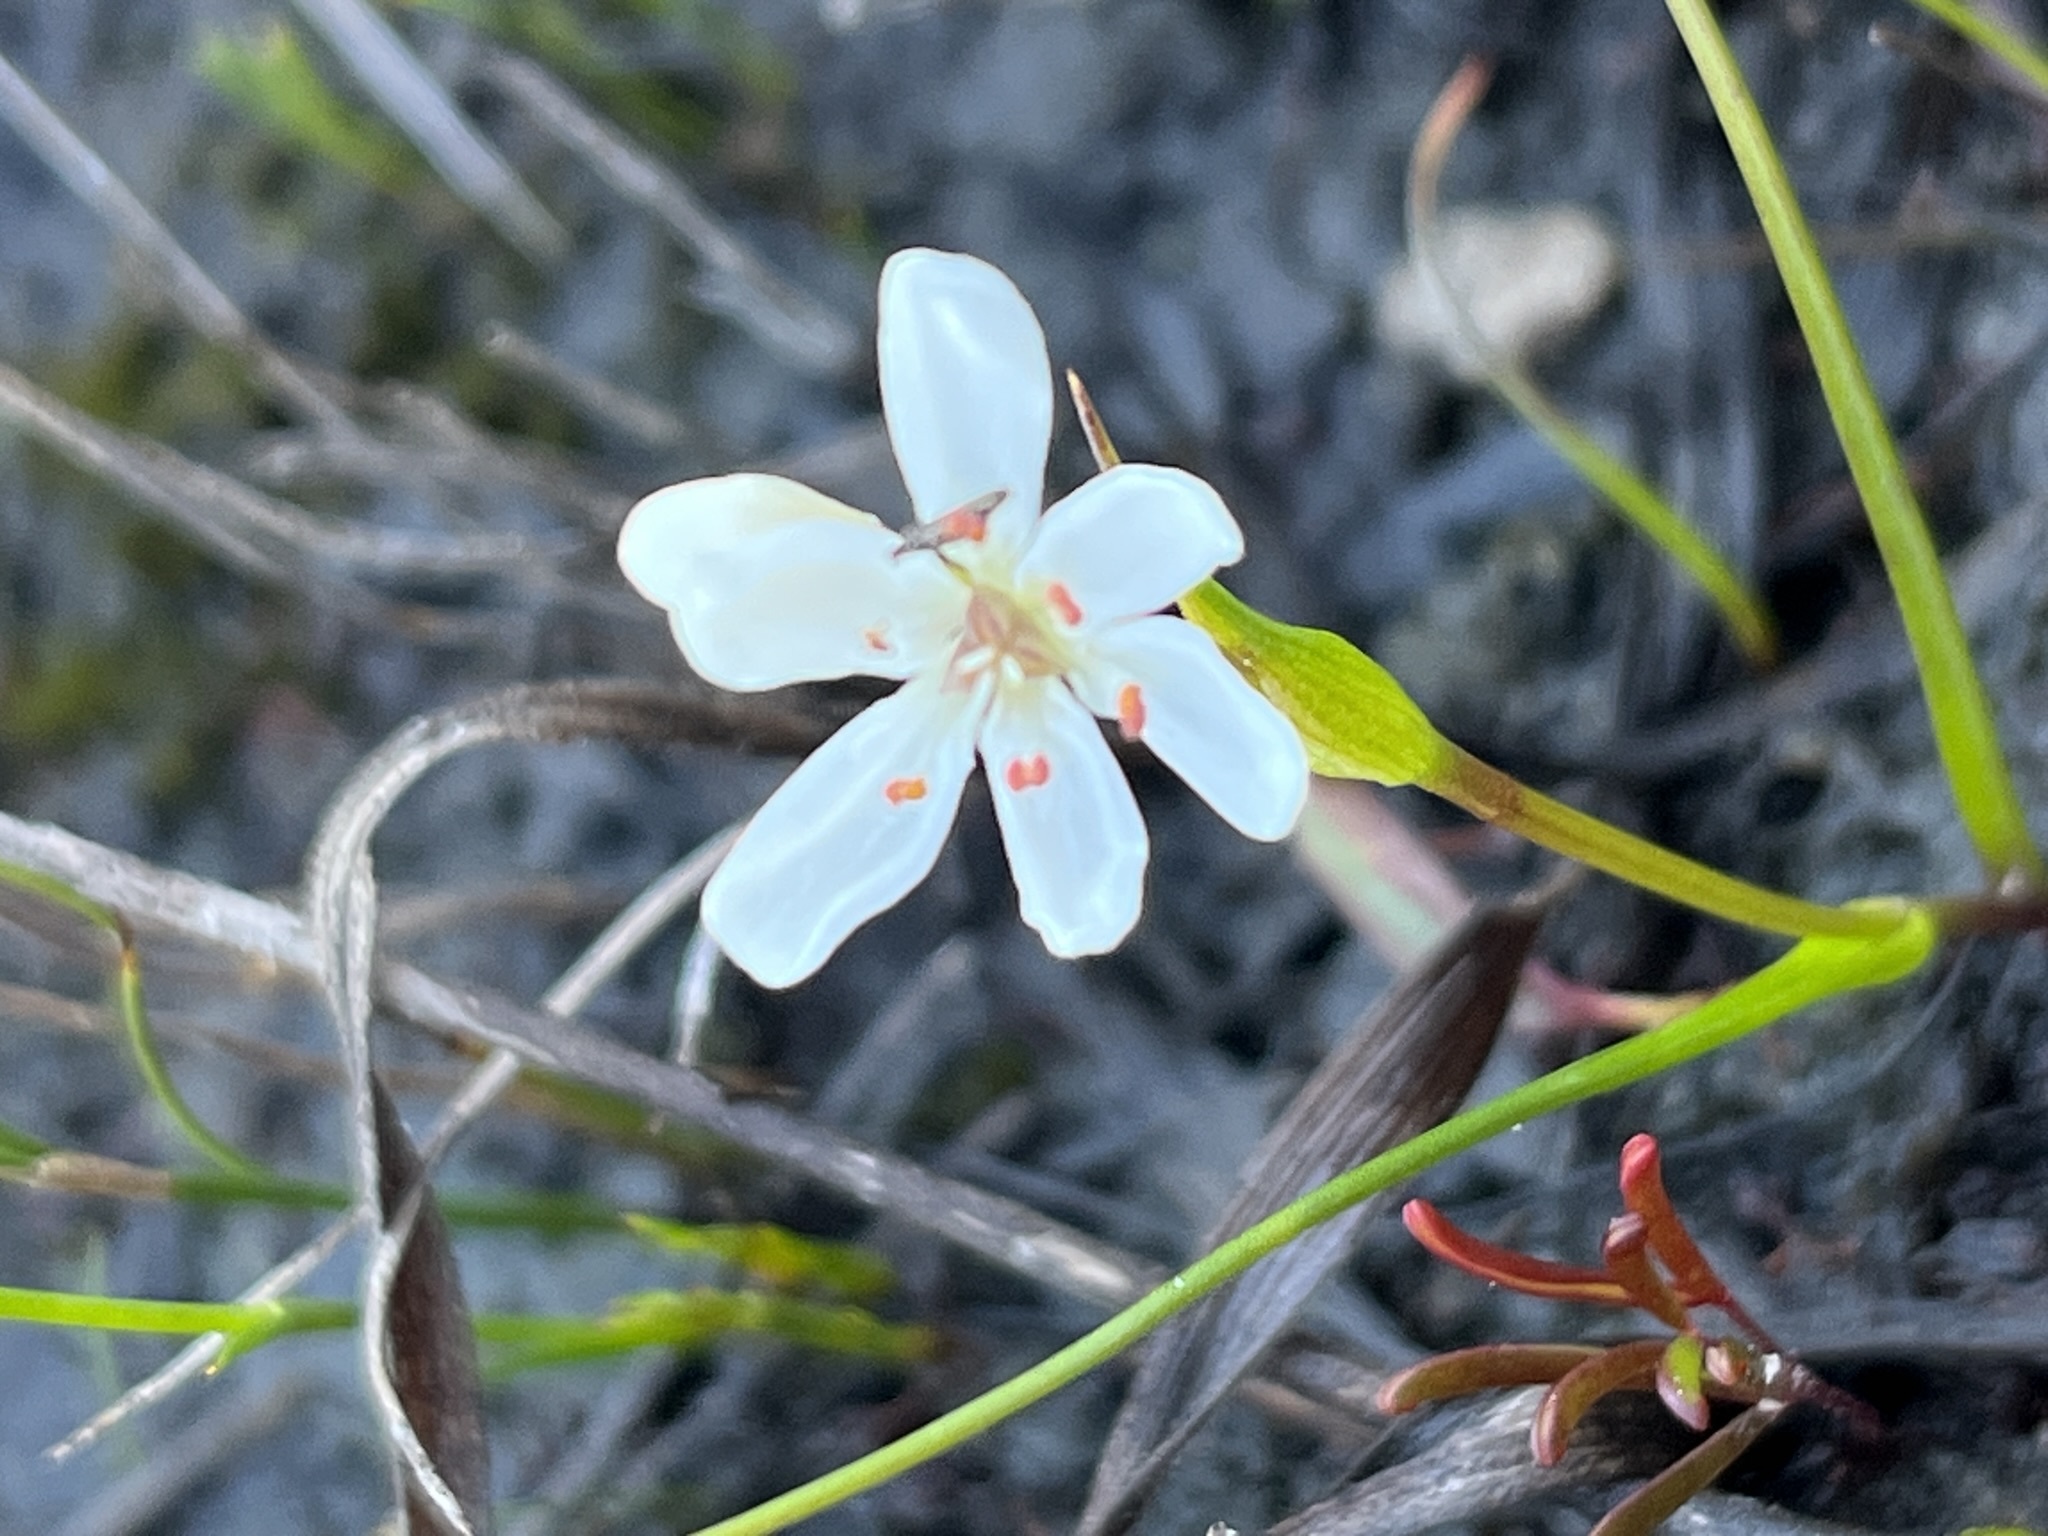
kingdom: Plantae
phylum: Tracheophyta
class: Liliopsida
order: Liliales
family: Colchicaceae
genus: Wurmbea
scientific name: Wurmbea punctata
